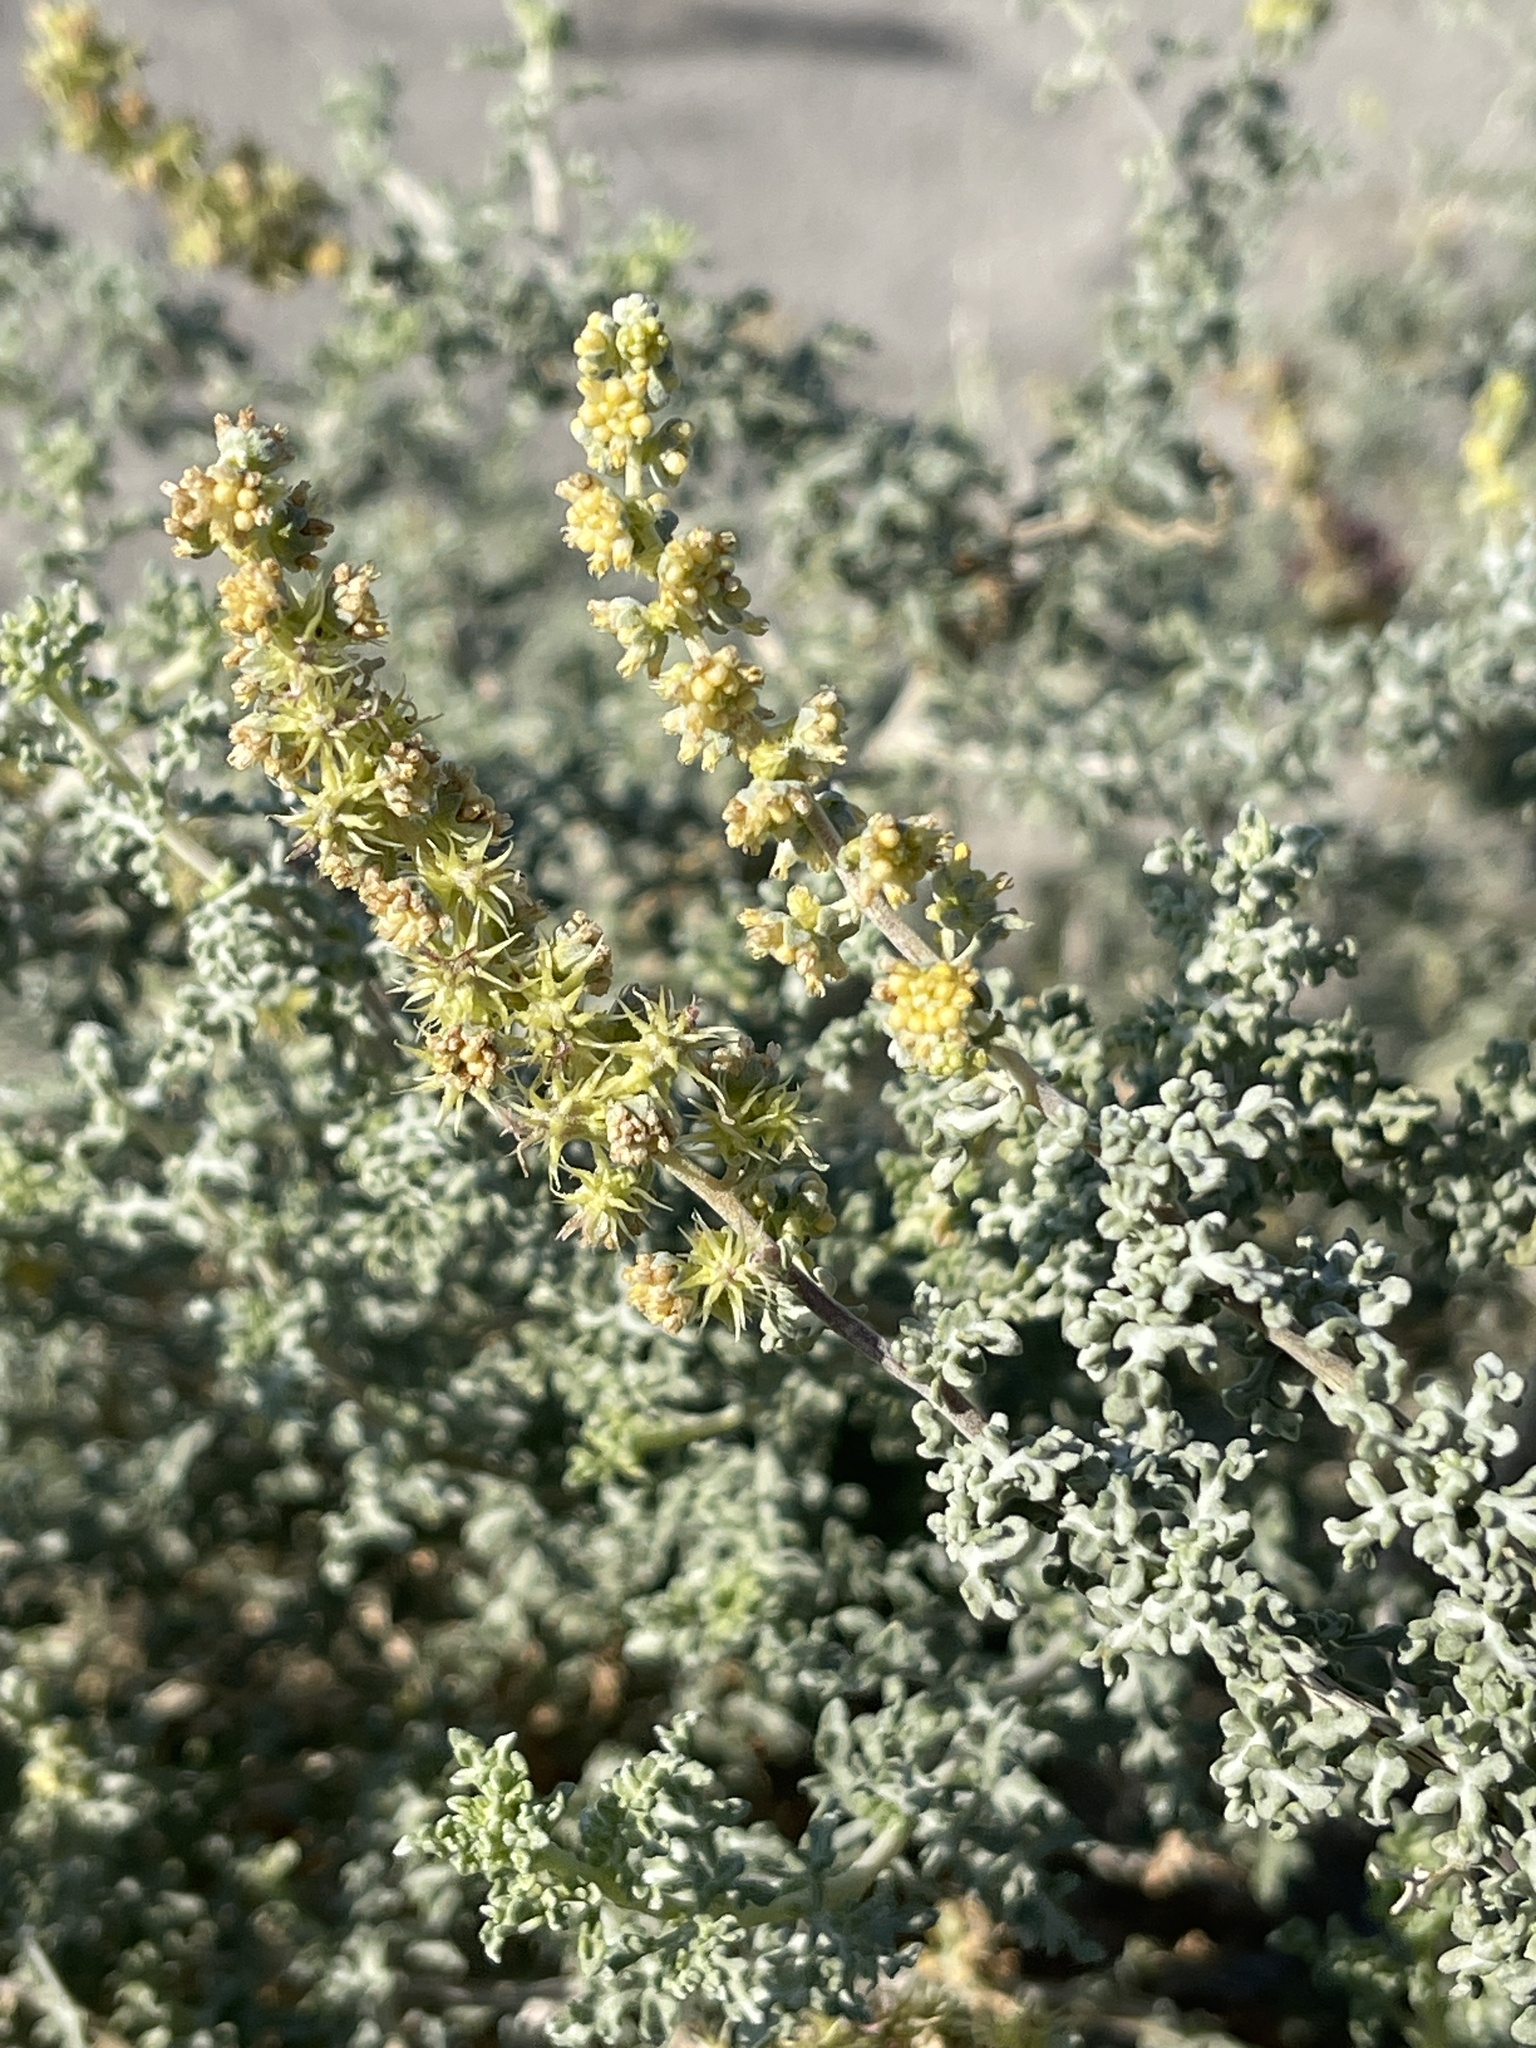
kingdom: Plantae
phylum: Tracheophyta
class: Magnoliopsida
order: Asterales
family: Asteraceae
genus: Ambrosia
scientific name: Ambrosia dumosa
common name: Bur-sage
